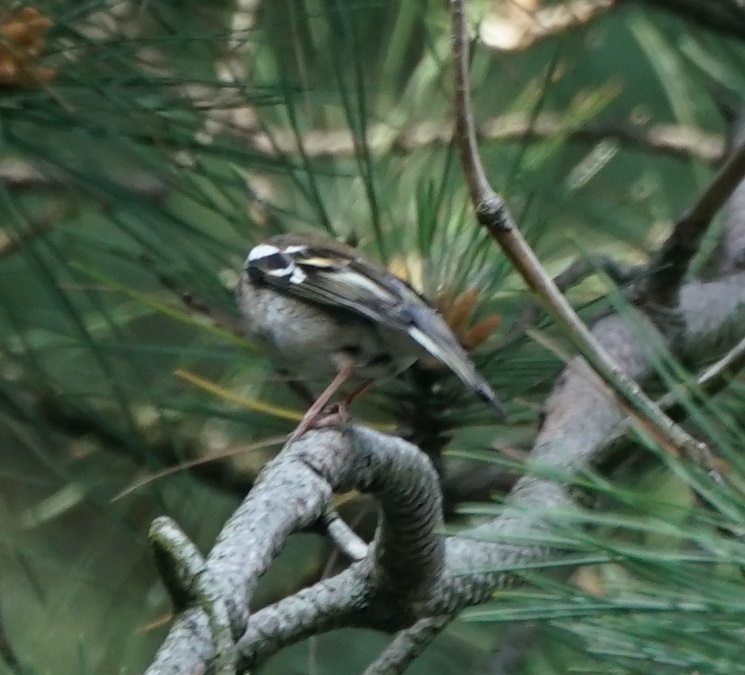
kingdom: Animalia
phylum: Chordata
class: Aves
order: Passeriformes
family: Fringillidae
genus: Fringilla
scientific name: Fringilla coelebs
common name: Common chaffinch
